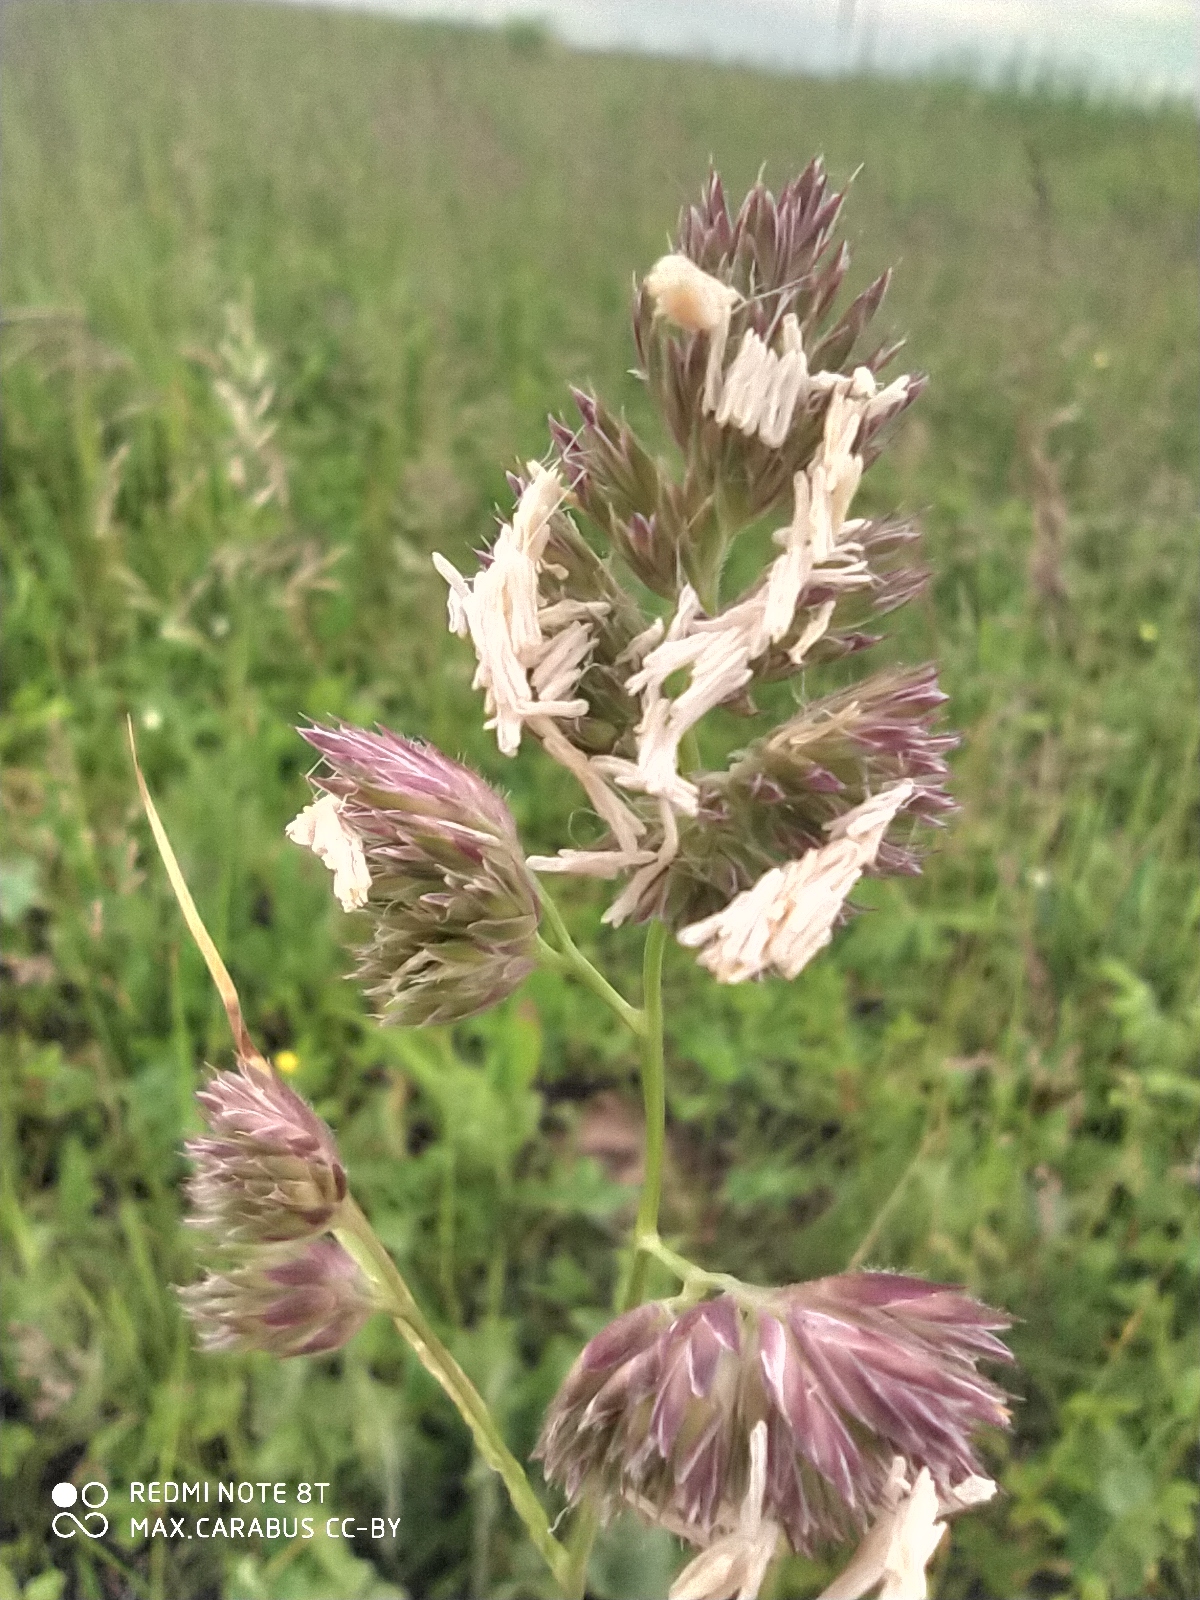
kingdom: Plantae
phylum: Tracheophyta
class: Liliopsida
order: Poales
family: Poaceae
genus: Dactylis
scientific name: Dactylis glomerata
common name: Orchardgrass
